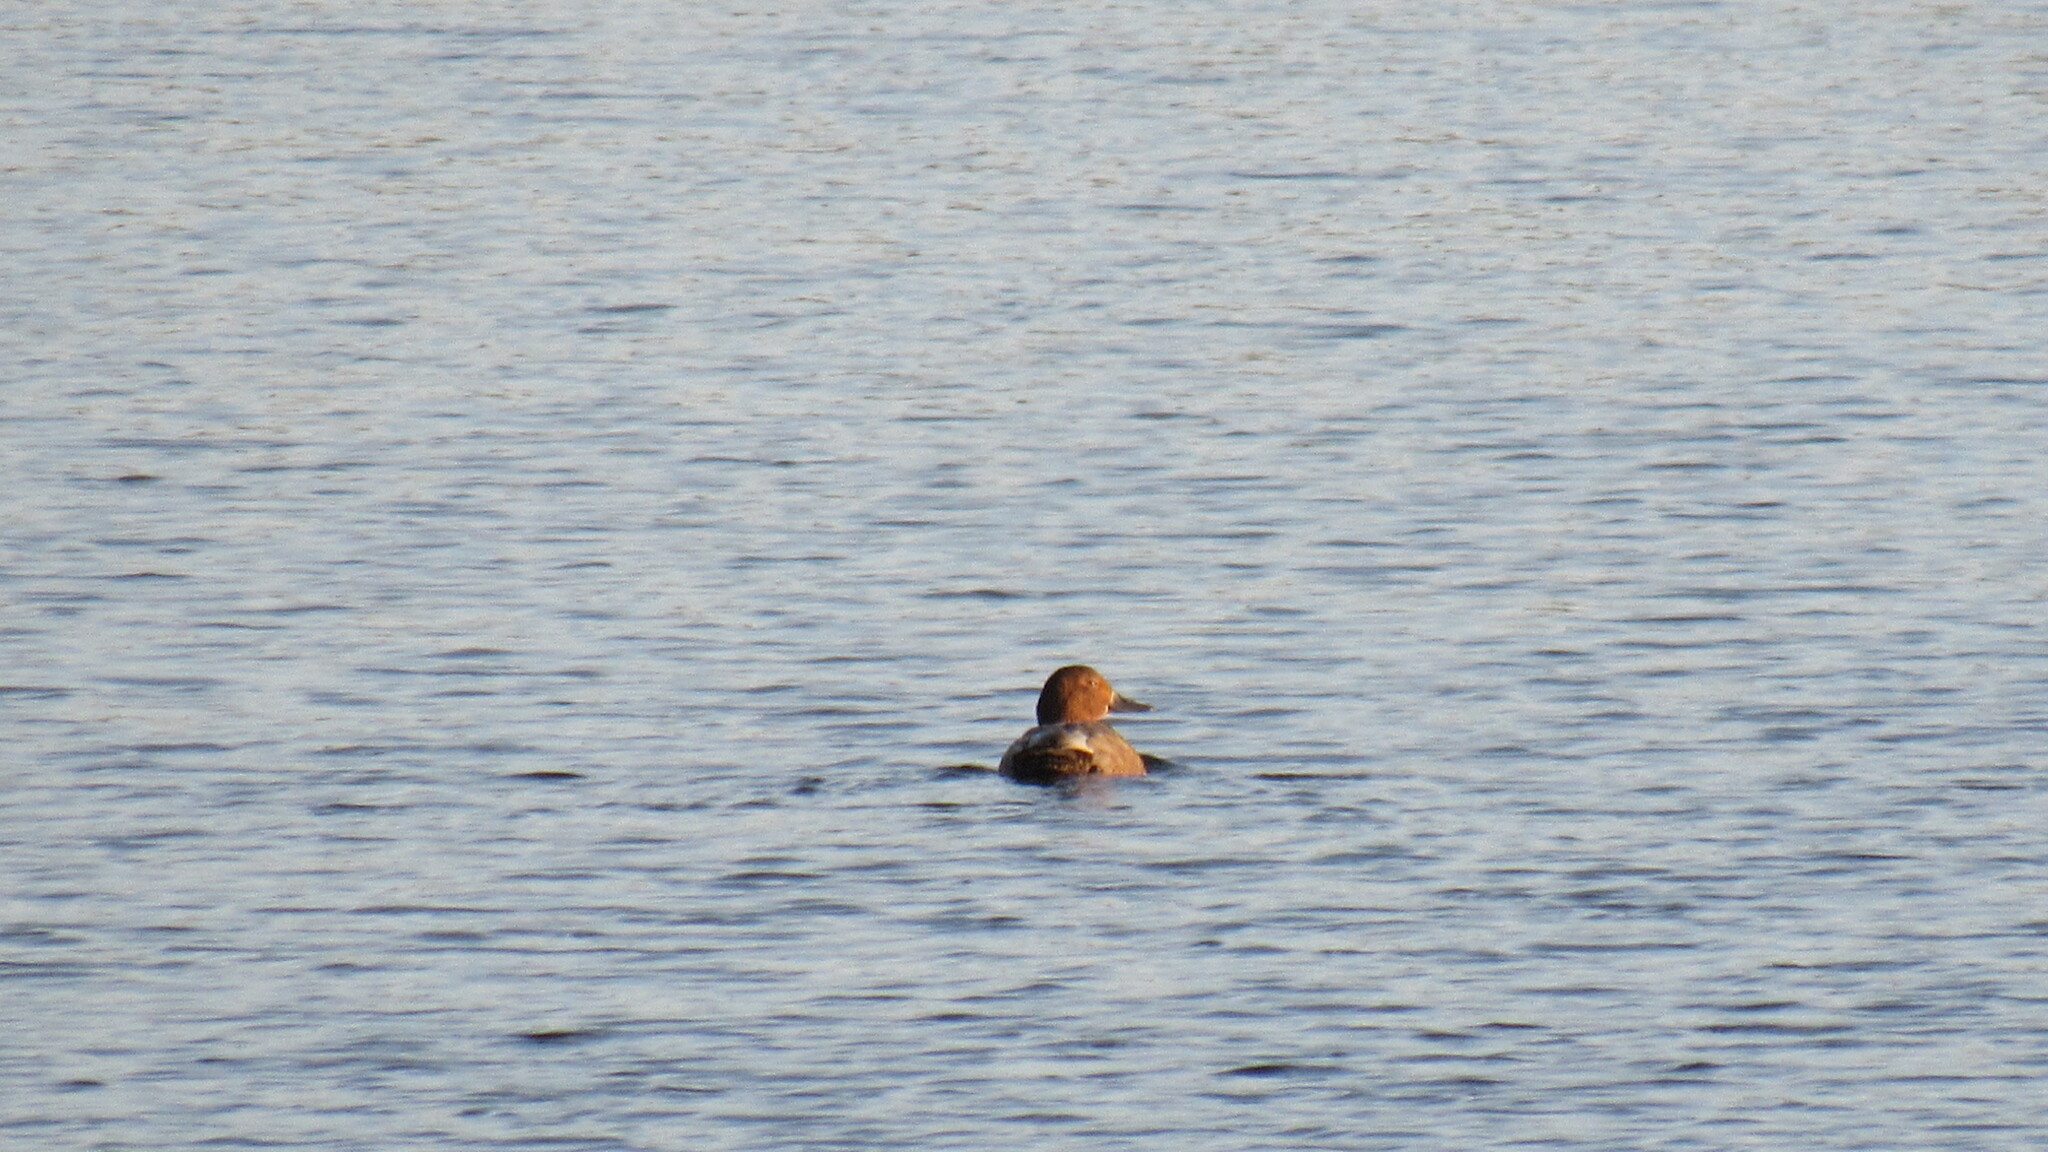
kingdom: Animalia
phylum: Chordata
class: Aves
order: Anseriformes
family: Anatidae
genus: Aythya
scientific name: Aythya ferina
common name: Common pochard
